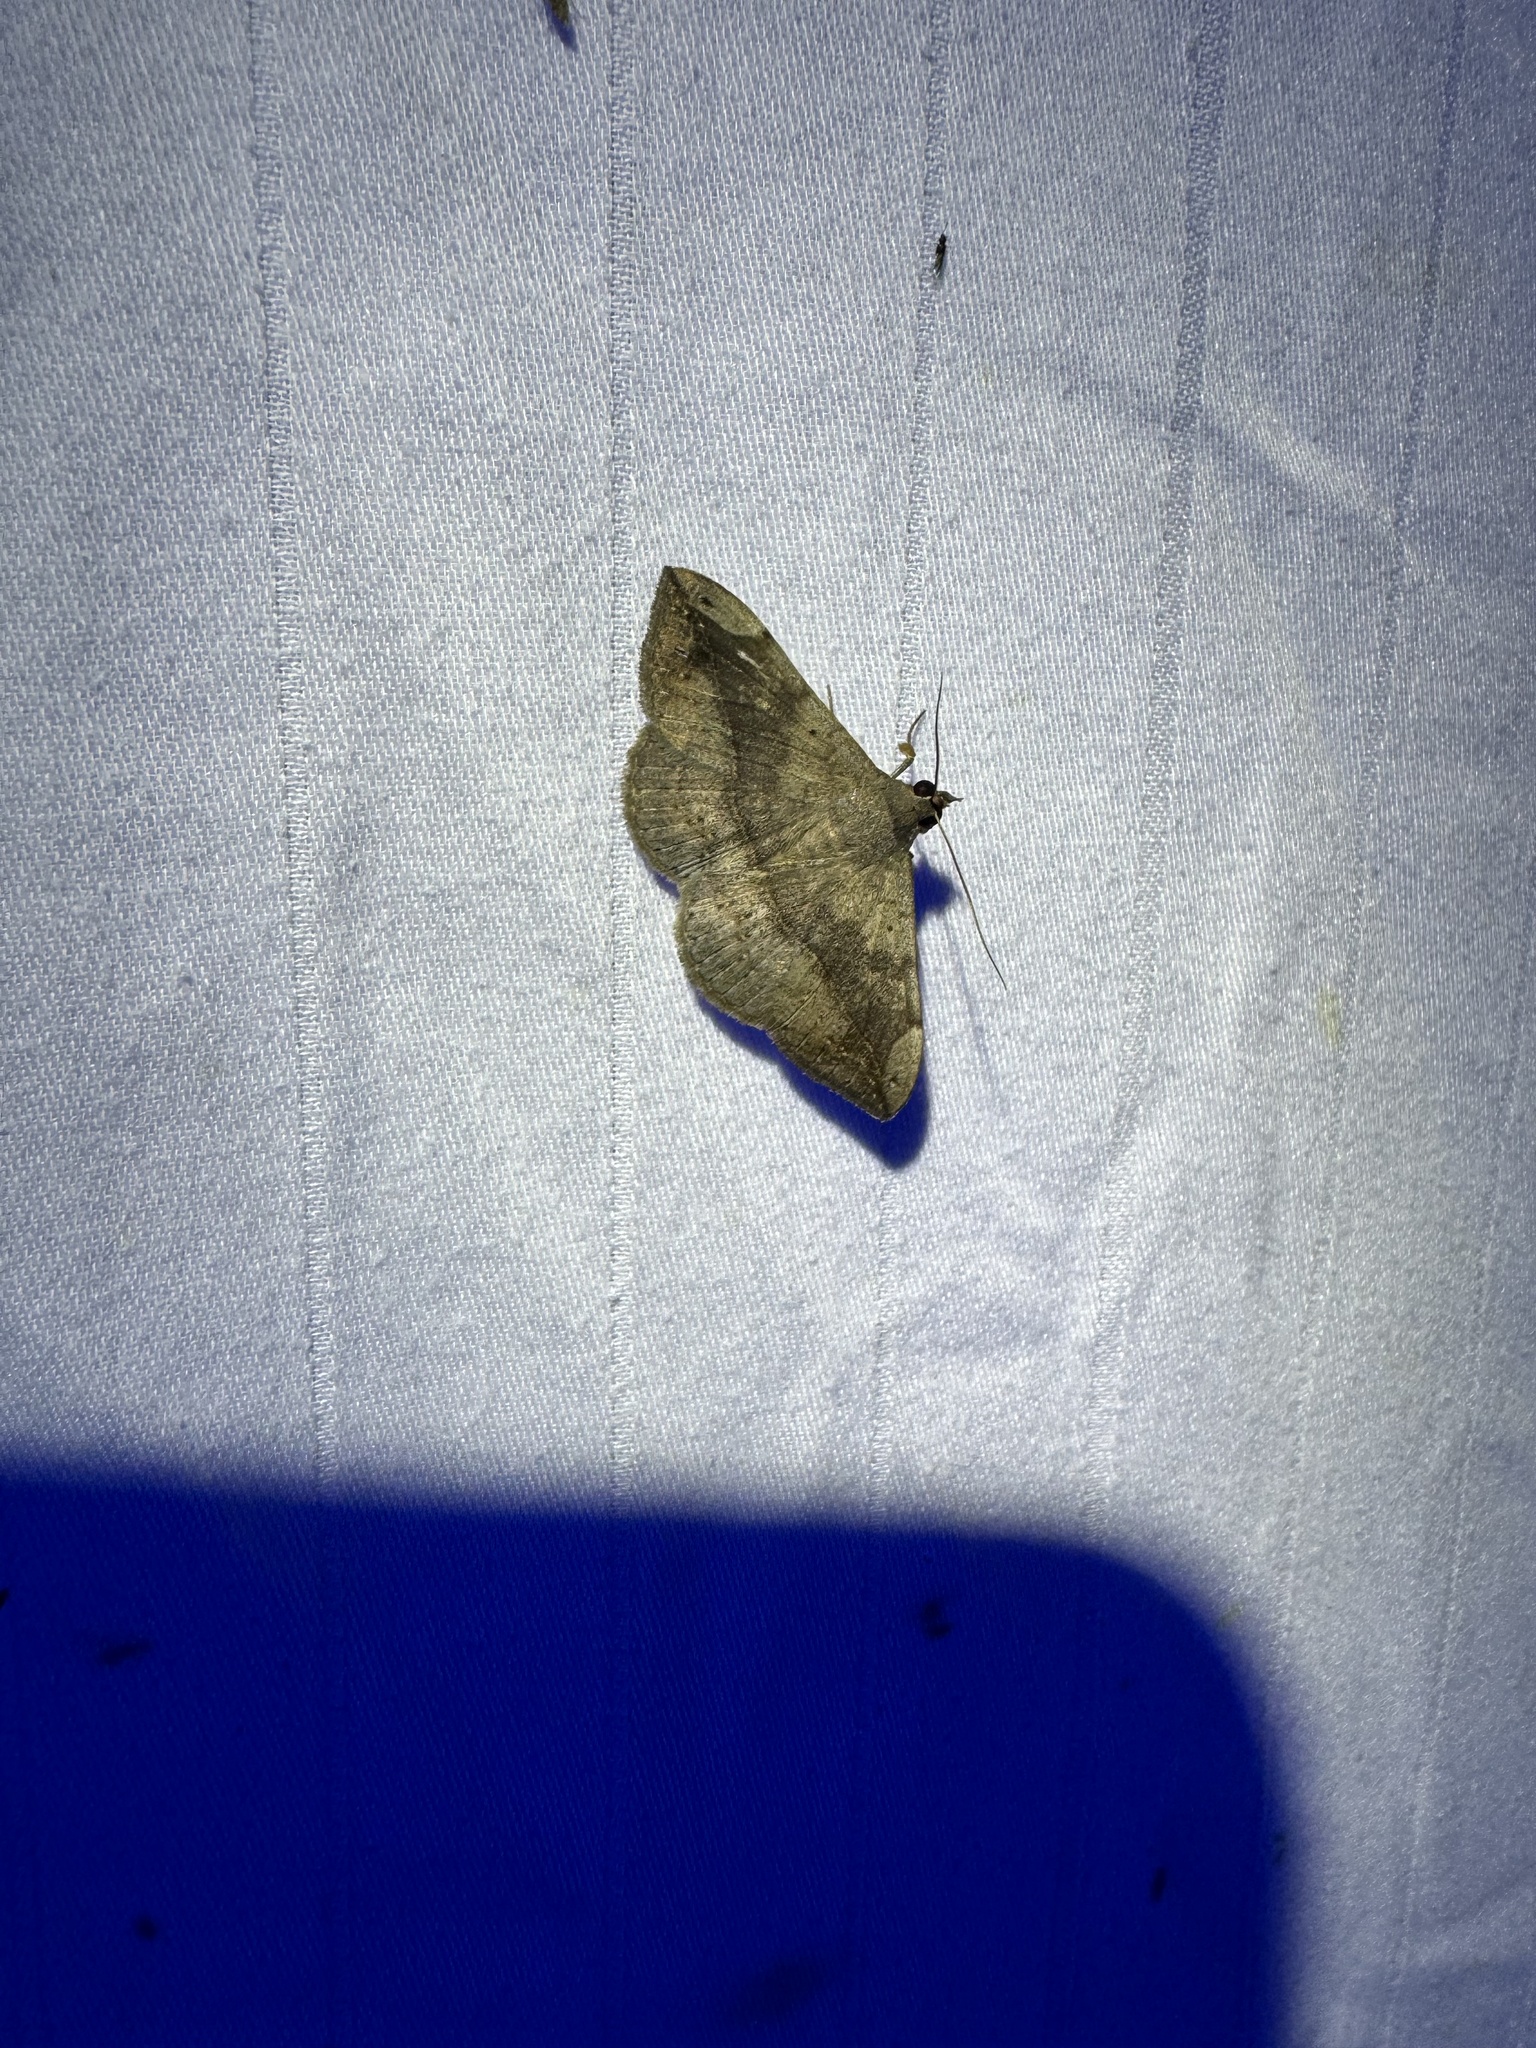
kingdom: Animalia
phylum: Arthropoda
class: Insecta
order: Lepidoptera
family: Erebidae
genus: Anticarsia
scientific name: Anticarsia gemmatalis
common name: Cutworm moth
